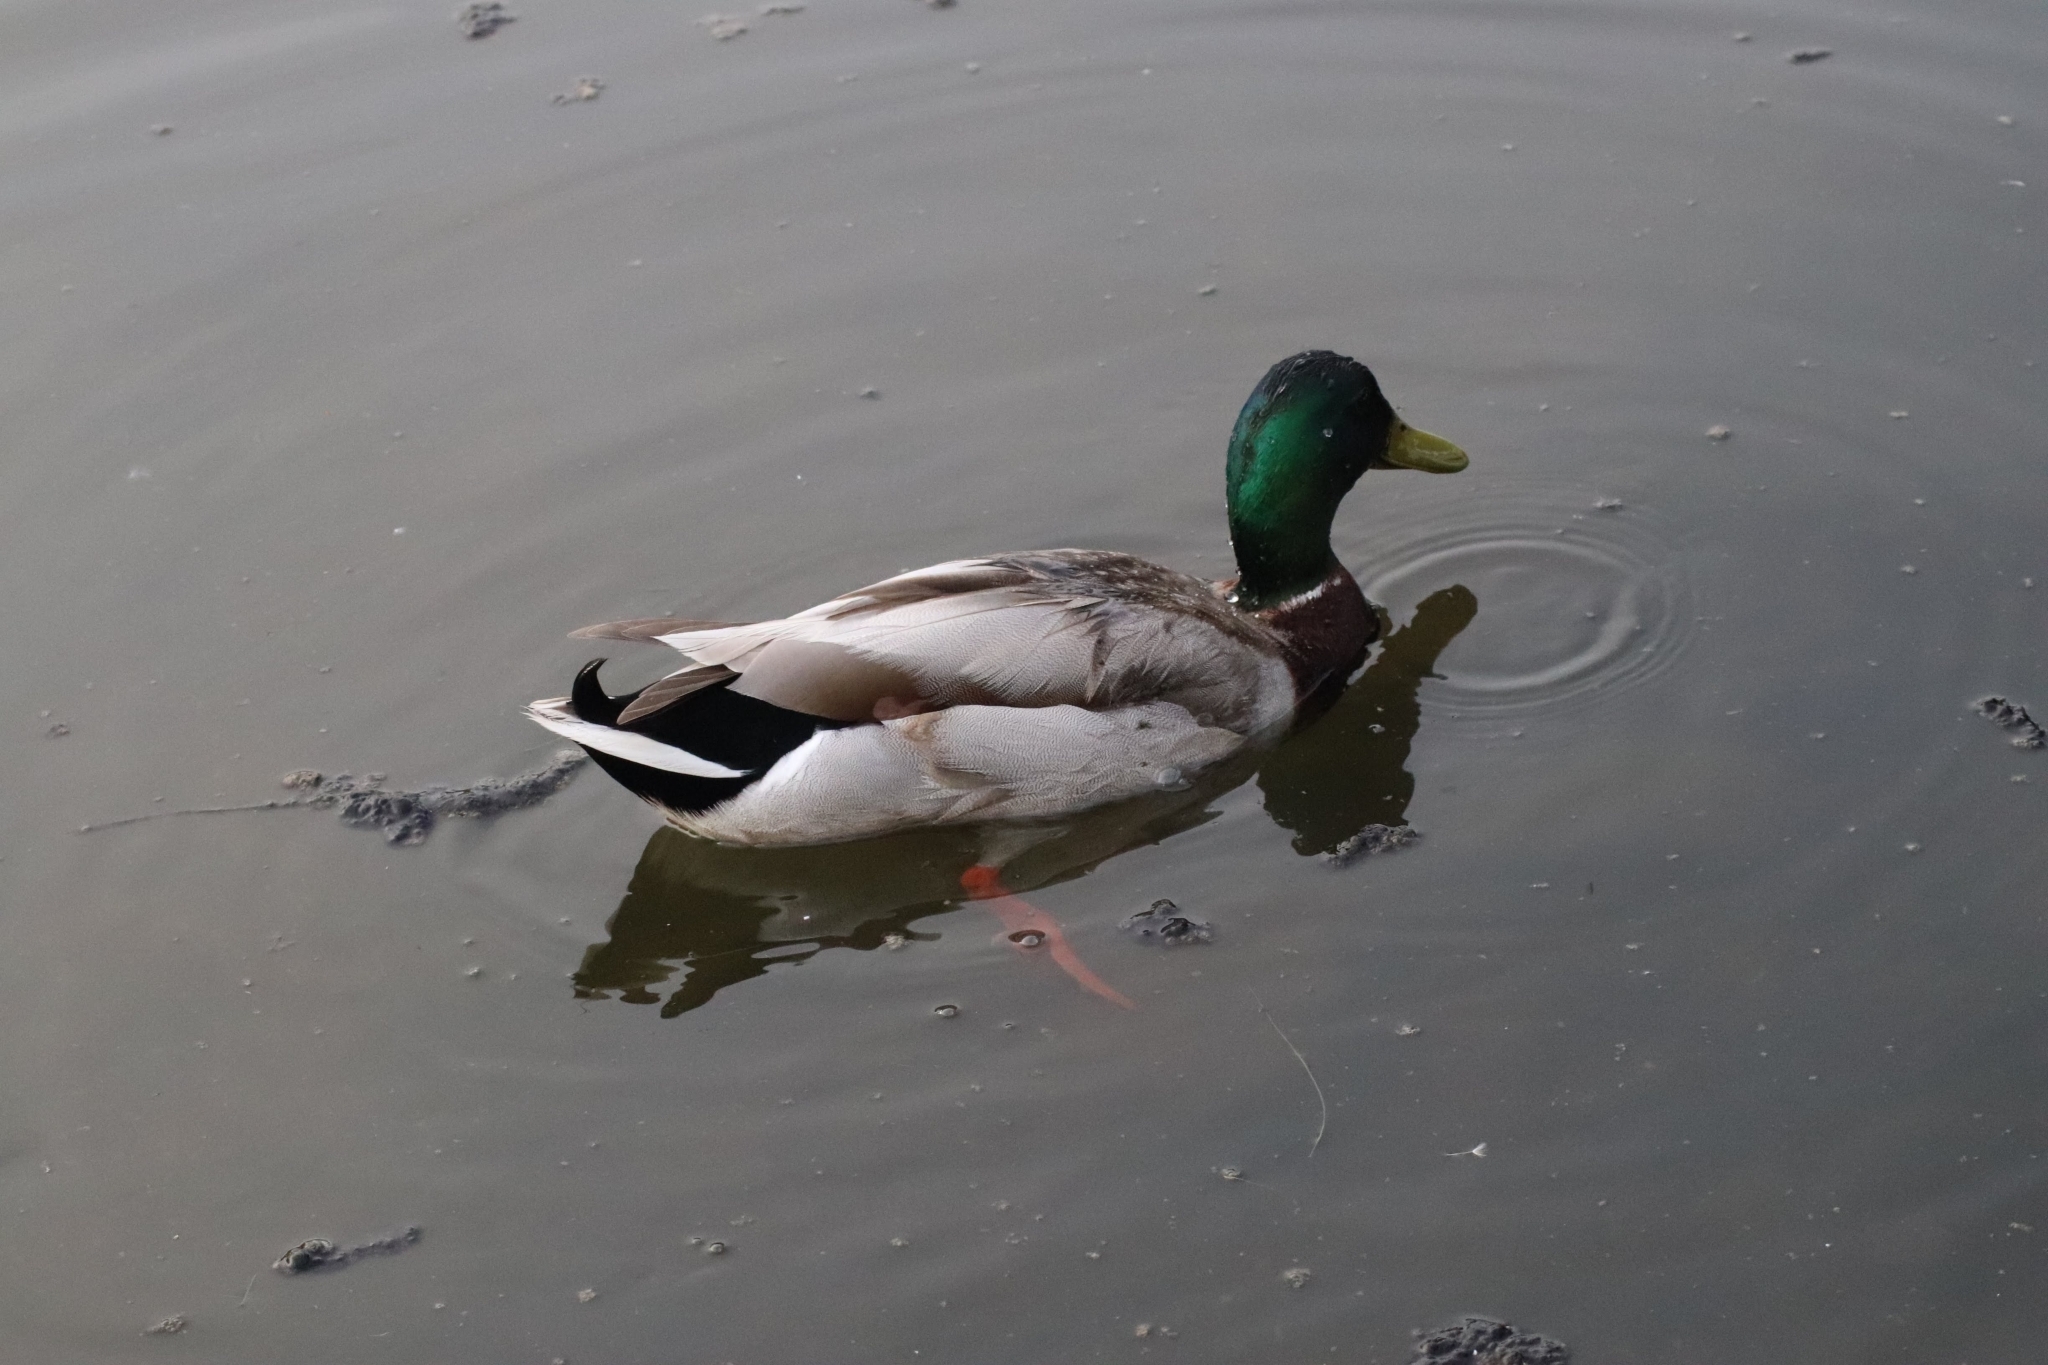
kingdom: Animalia
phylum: Chordata
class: Aves
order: Anseriformes
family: Anatidae
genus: Anas
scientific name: Anas platyrhynchos
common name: Mallard
